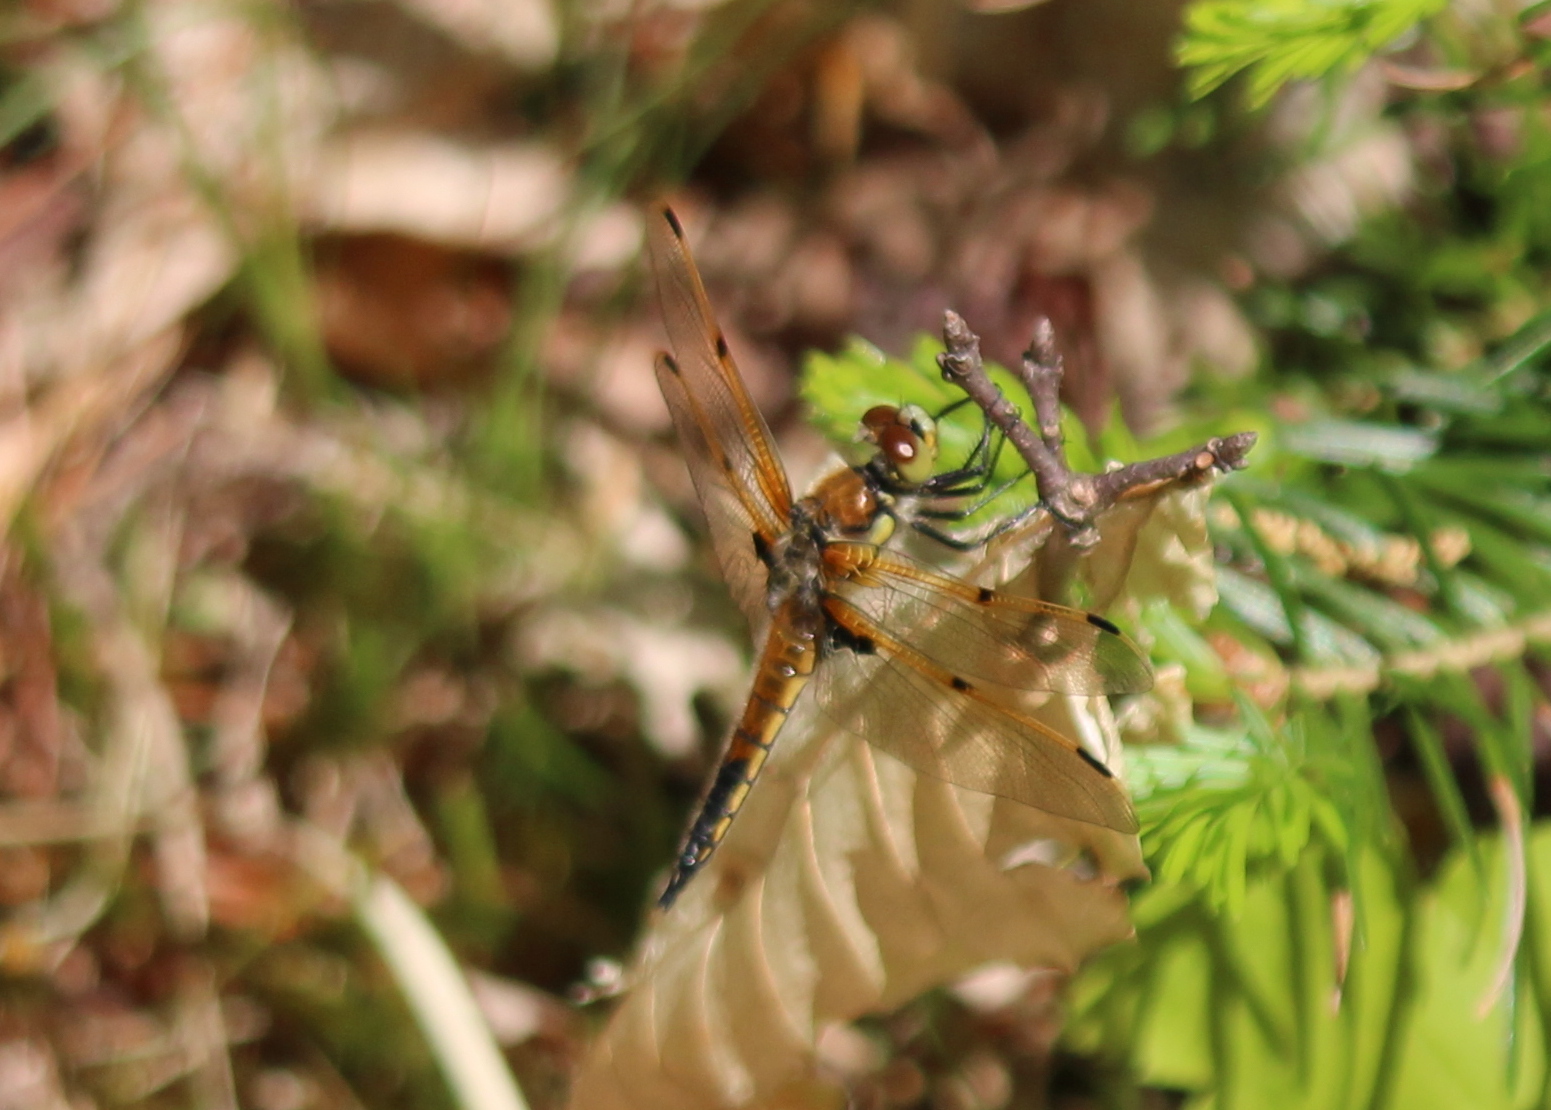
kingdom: Animalia
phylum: Arthropoda
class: Insecta
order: Odonata
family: Libellulidae
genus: Libellula
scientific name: Libellula quadrimaculata
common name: Four-spotted chaser
